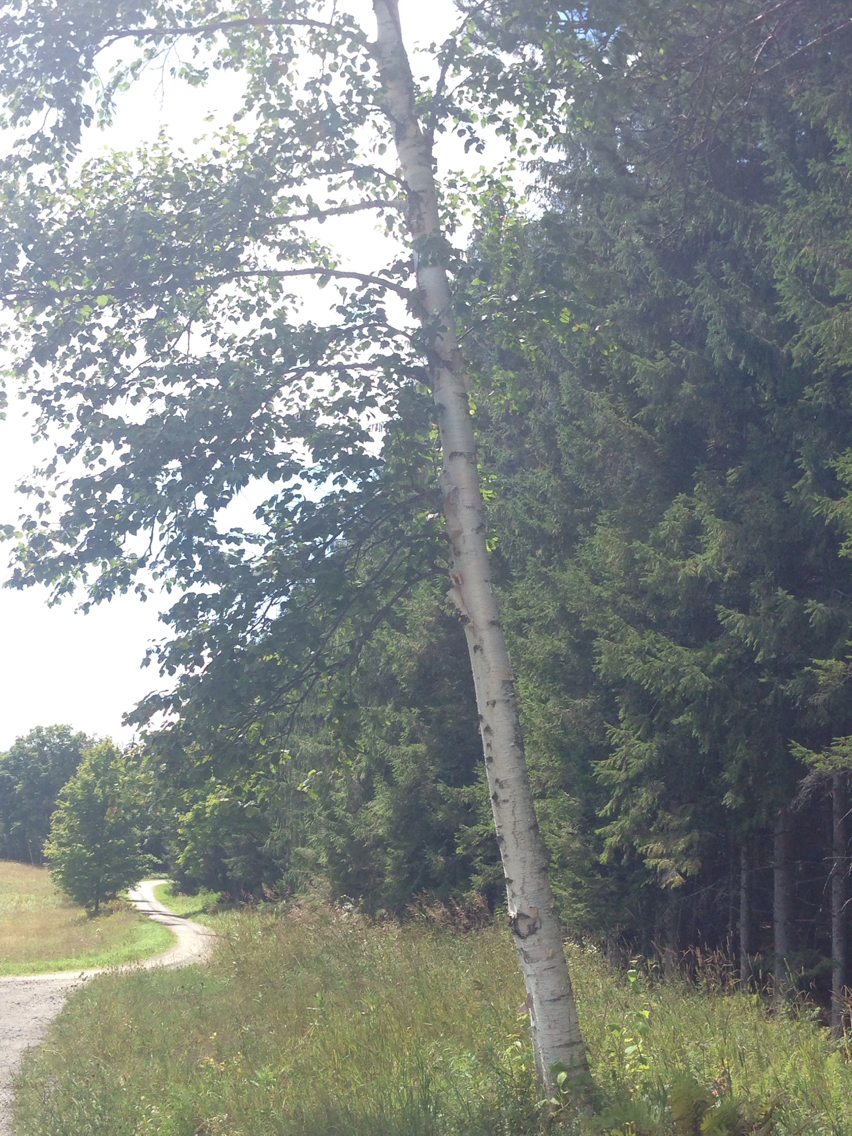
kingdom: Plantae
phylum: Tracheophyta
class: Magnoliopsida
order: Fagales
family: Betulaceae
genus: Betula
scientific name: Betula papyrifera
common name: Paper birch
